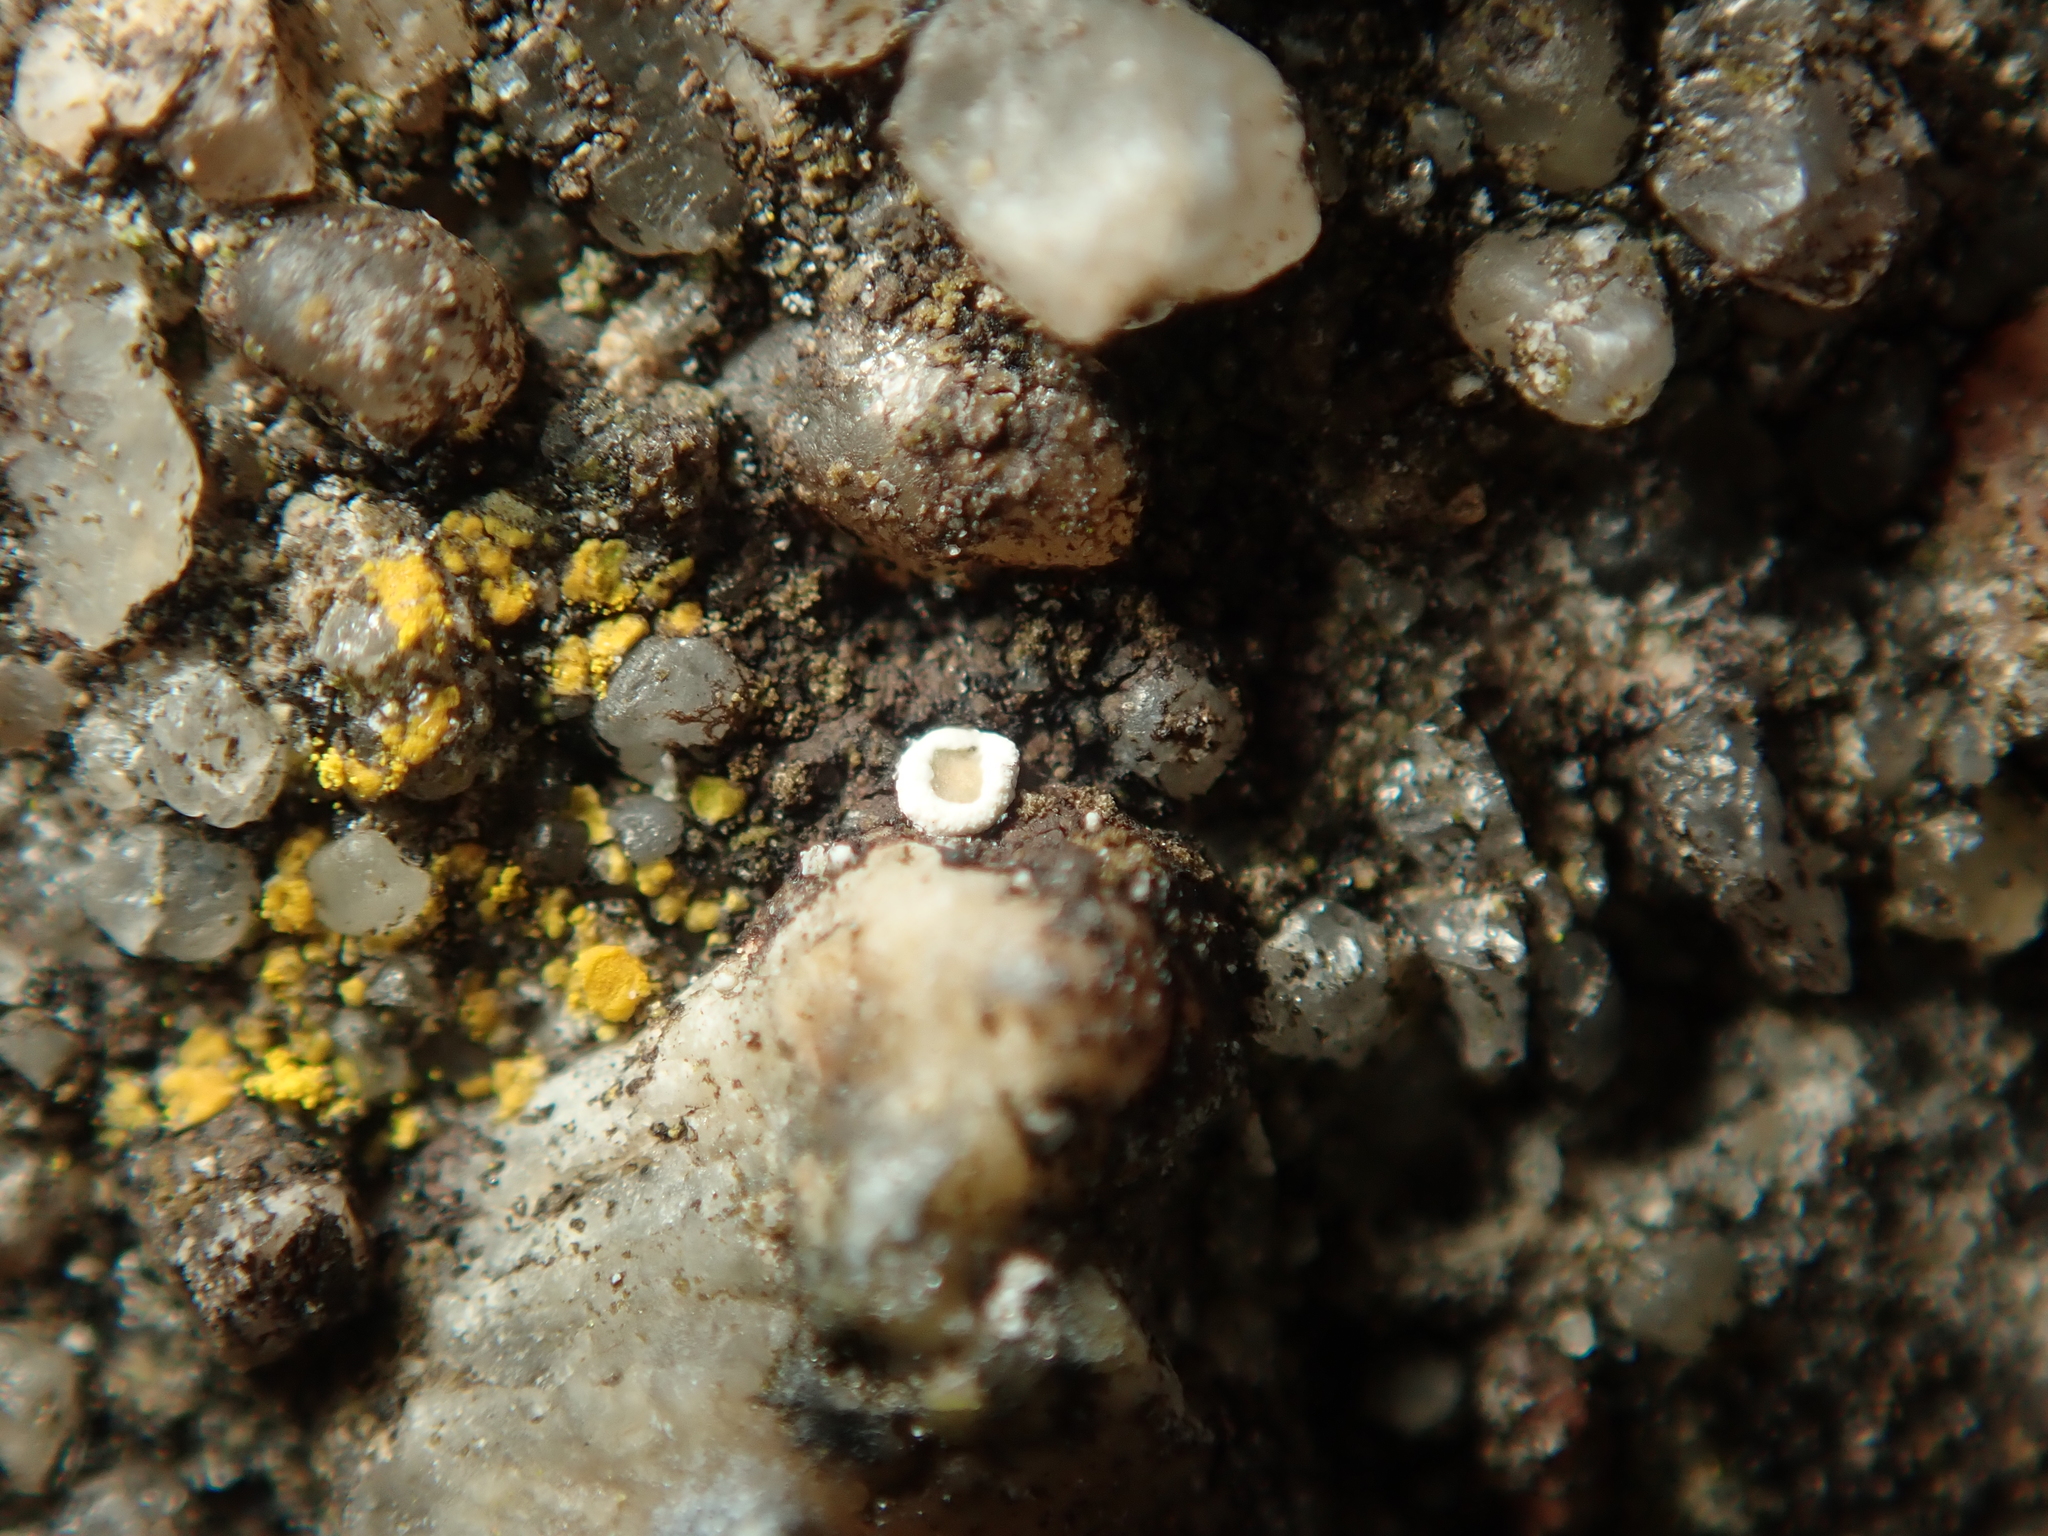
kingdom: Fungi
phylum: Ascomycota
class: Lecanoromycetes
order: Lecanorales
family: Lecanoraceae
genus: Myriolecis
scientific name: Myriolecis
